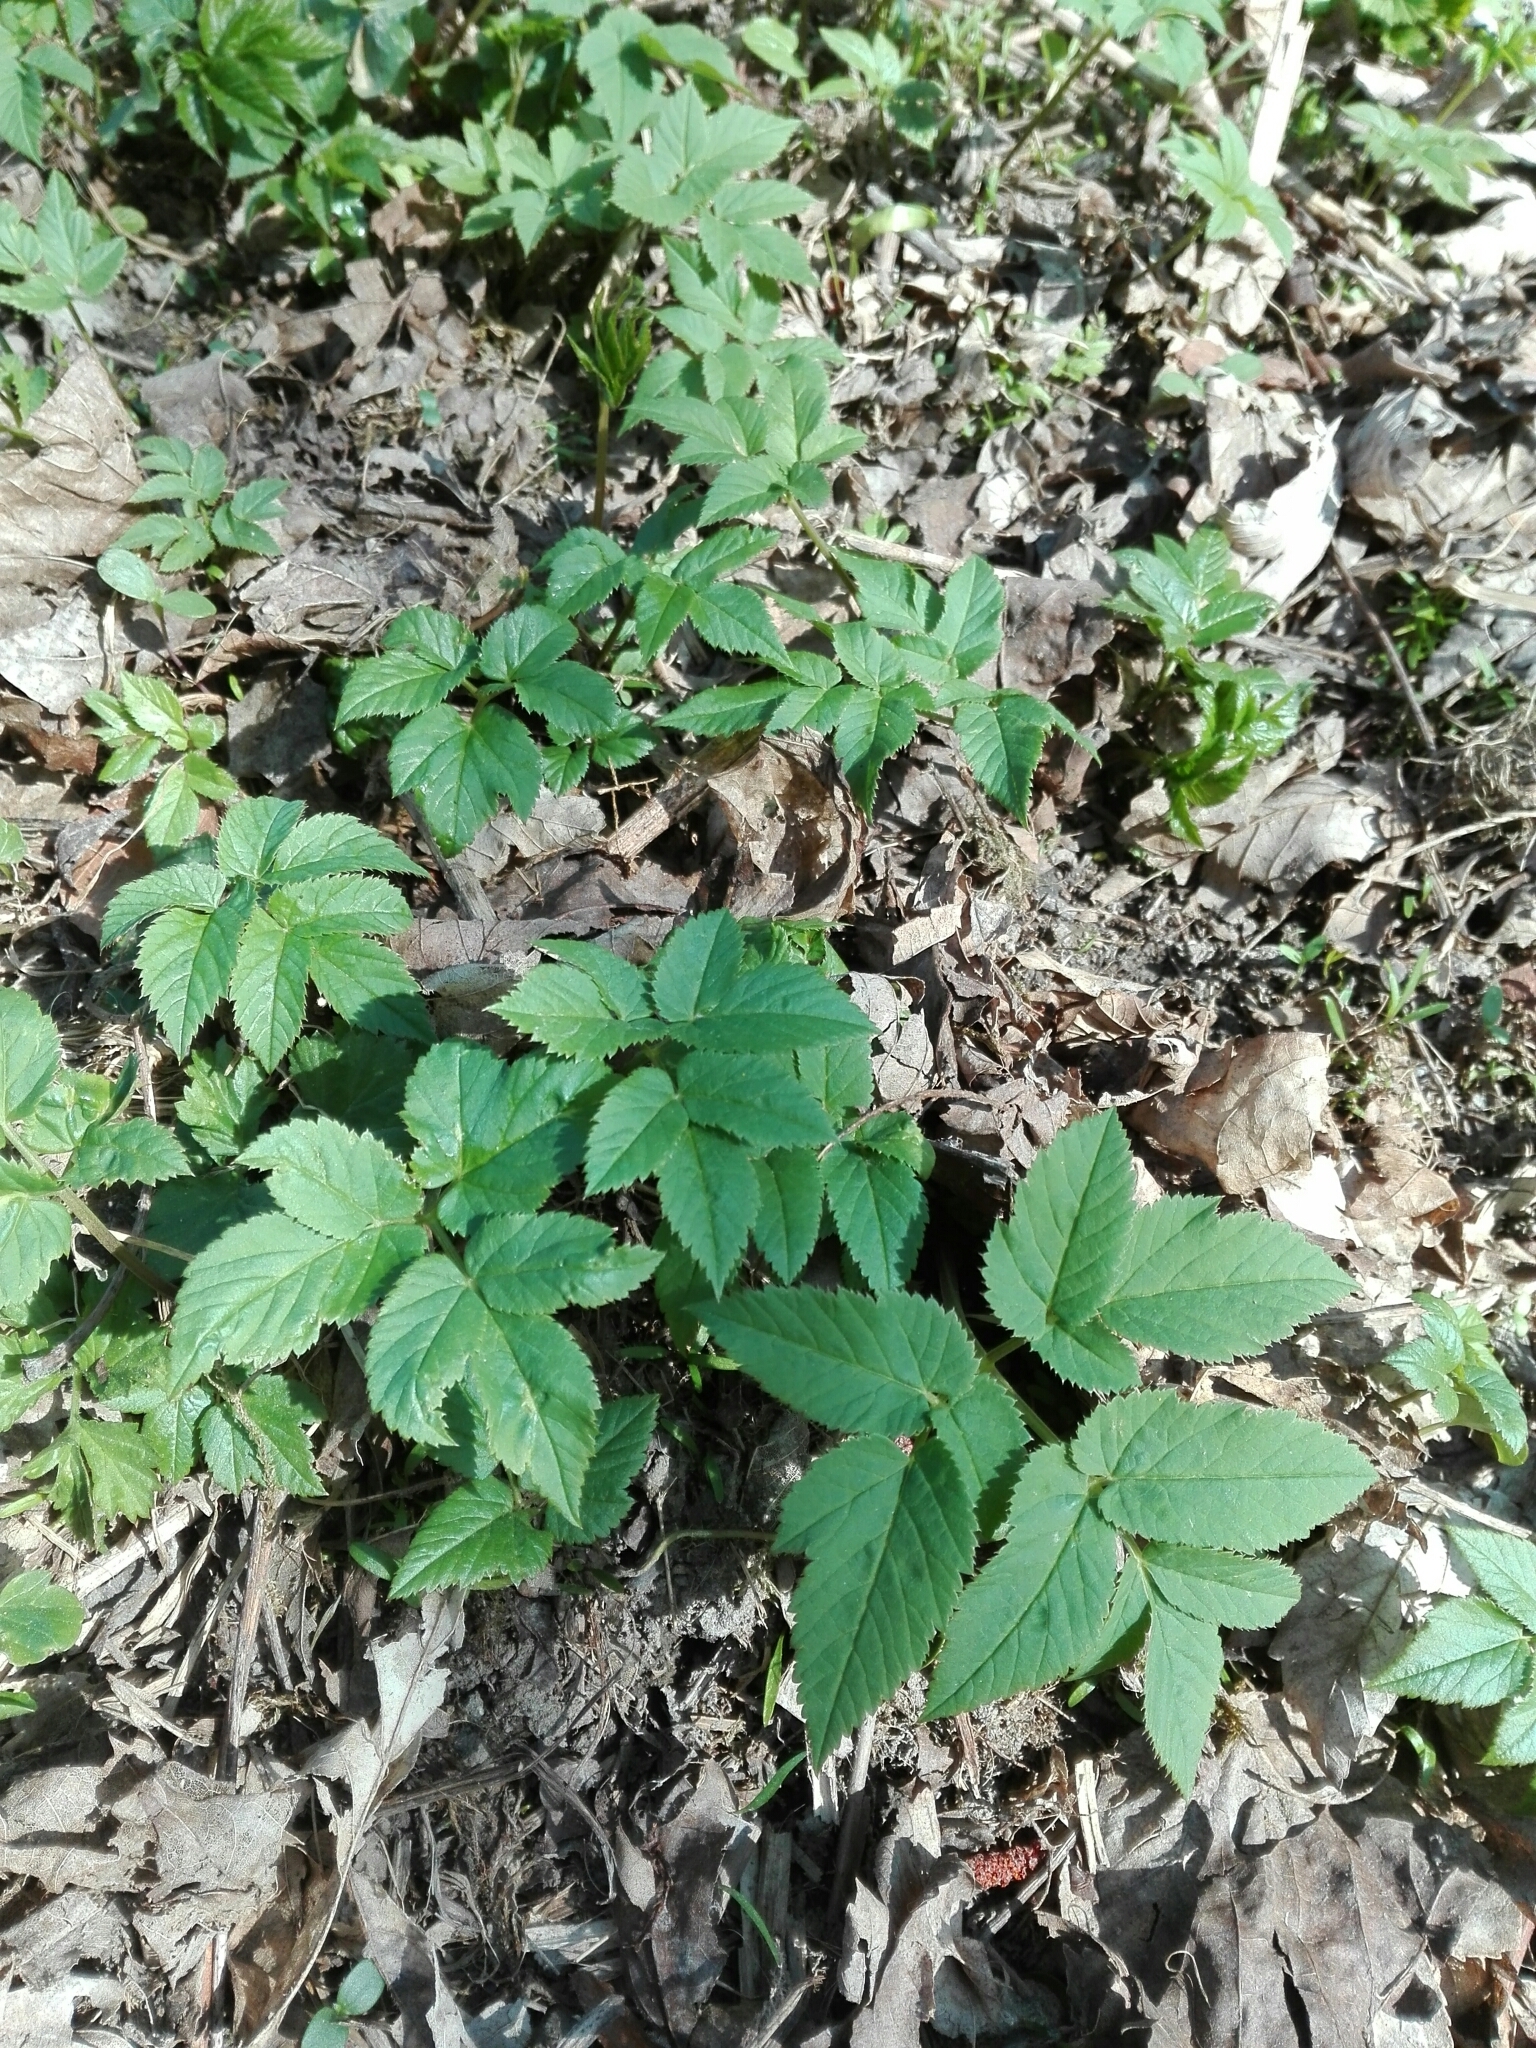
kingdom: Plantae
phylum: Tracheophyta
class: Magnoliopsida
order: Apiales
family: Apiaceae
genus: Aegopodium
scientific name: Aegopodium podagraria
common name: Ground-elder
